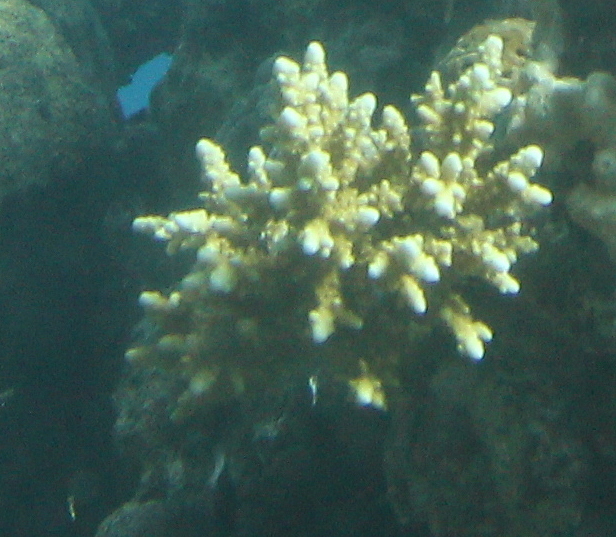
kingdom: Animalia
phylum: Cnidaria
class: Anthozoa
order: Scleractinia
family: Acroporidae
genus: Acropora
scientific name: Acropora hemprichii
